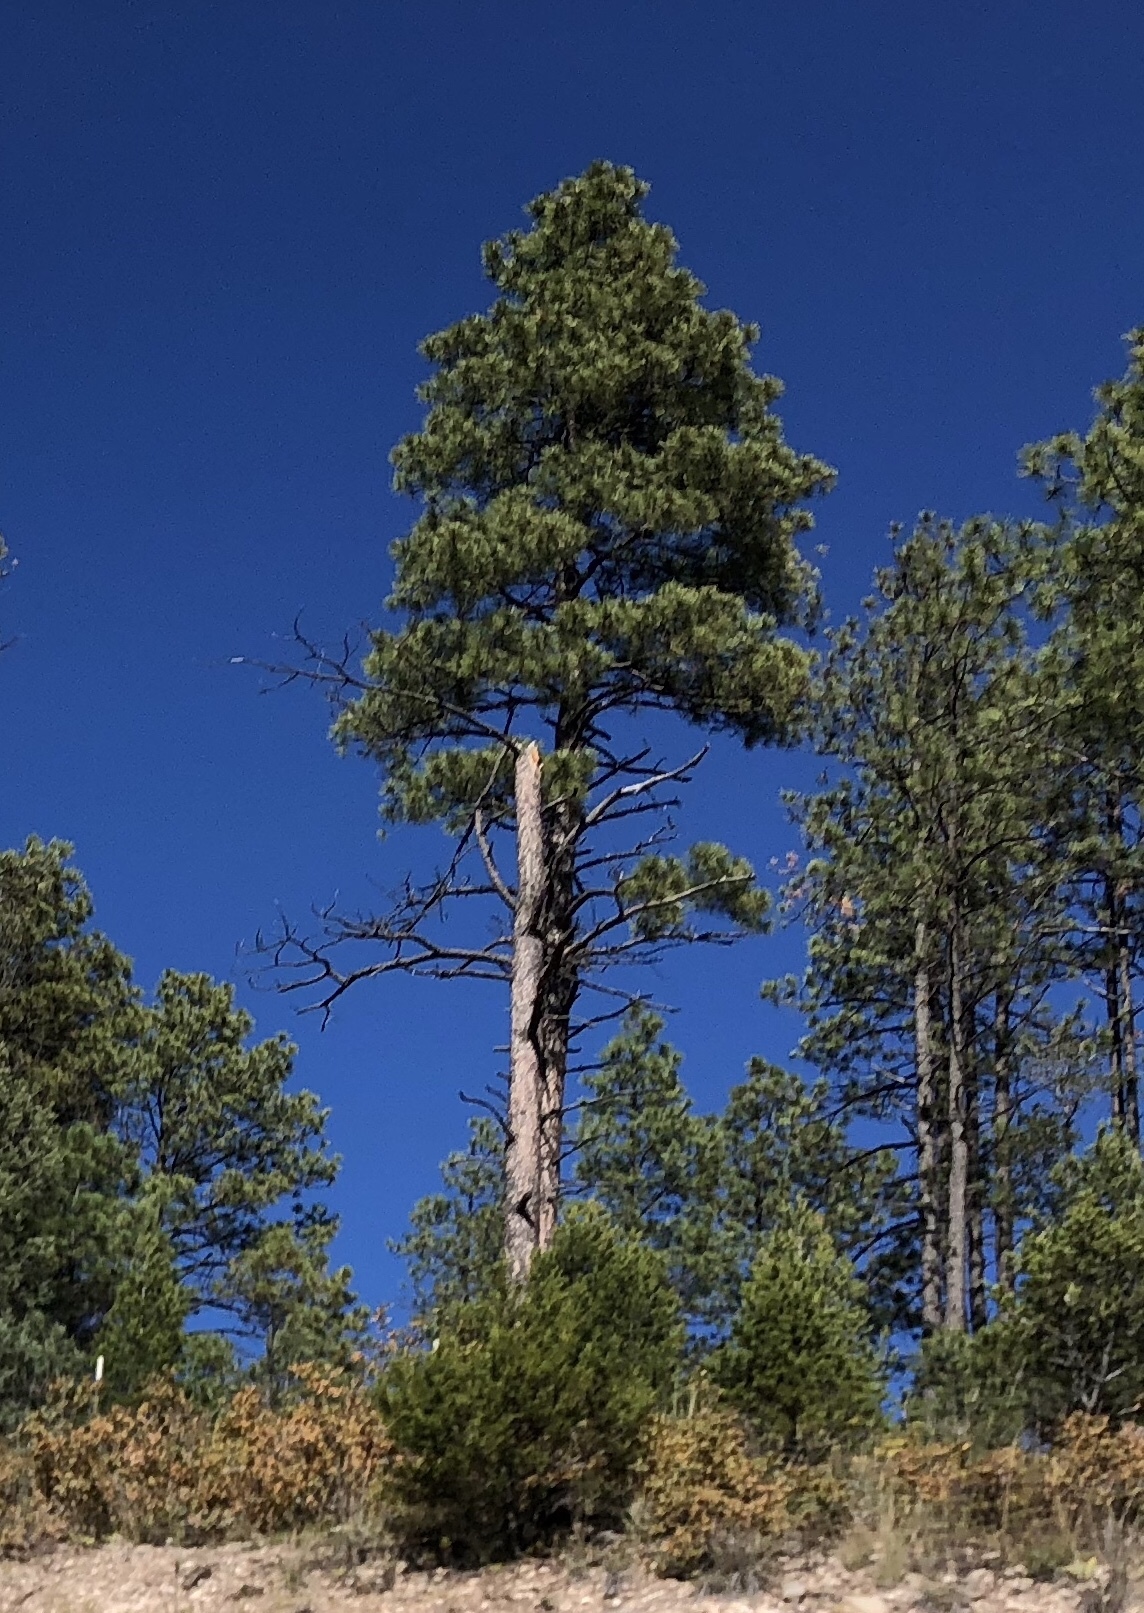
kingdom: Plantae
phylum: Tracheophyta
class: Pinopsida
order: Pinales
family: Pinaceae
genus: Pinus
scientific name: Pinus ponderosa
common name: Western yellow-pine
